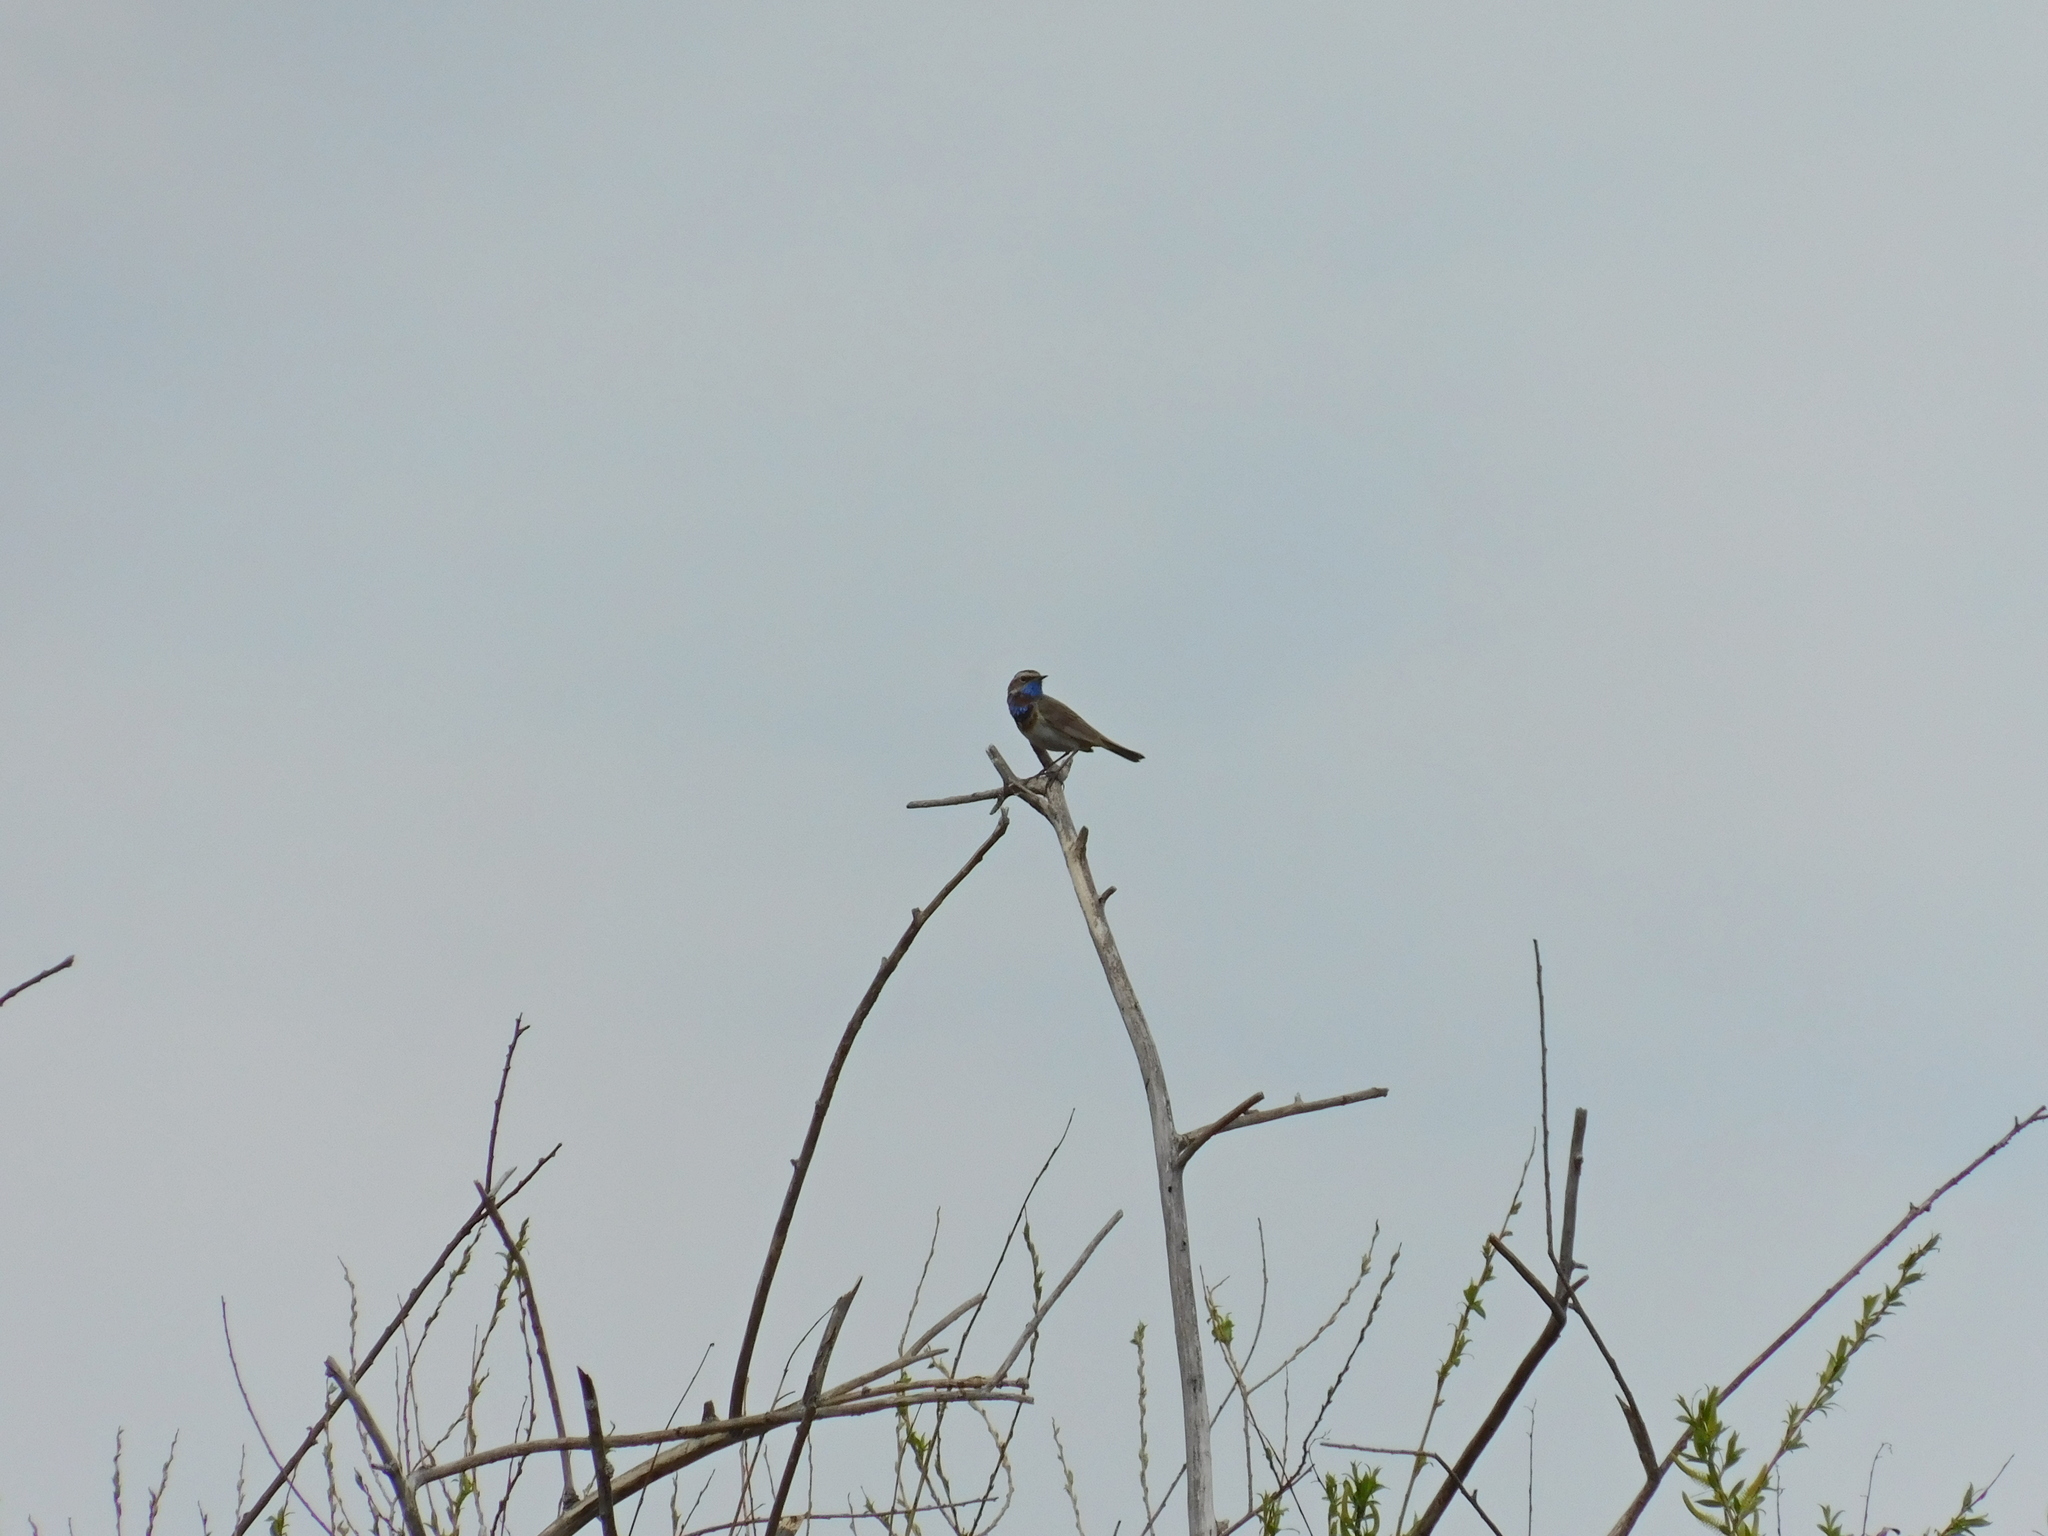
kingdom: Animalia
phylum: Chordata
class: Aves
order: Passeriformes
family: Muscicapidae
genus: Luscinia
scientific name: Luscinia svecica
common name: Bluethroat
